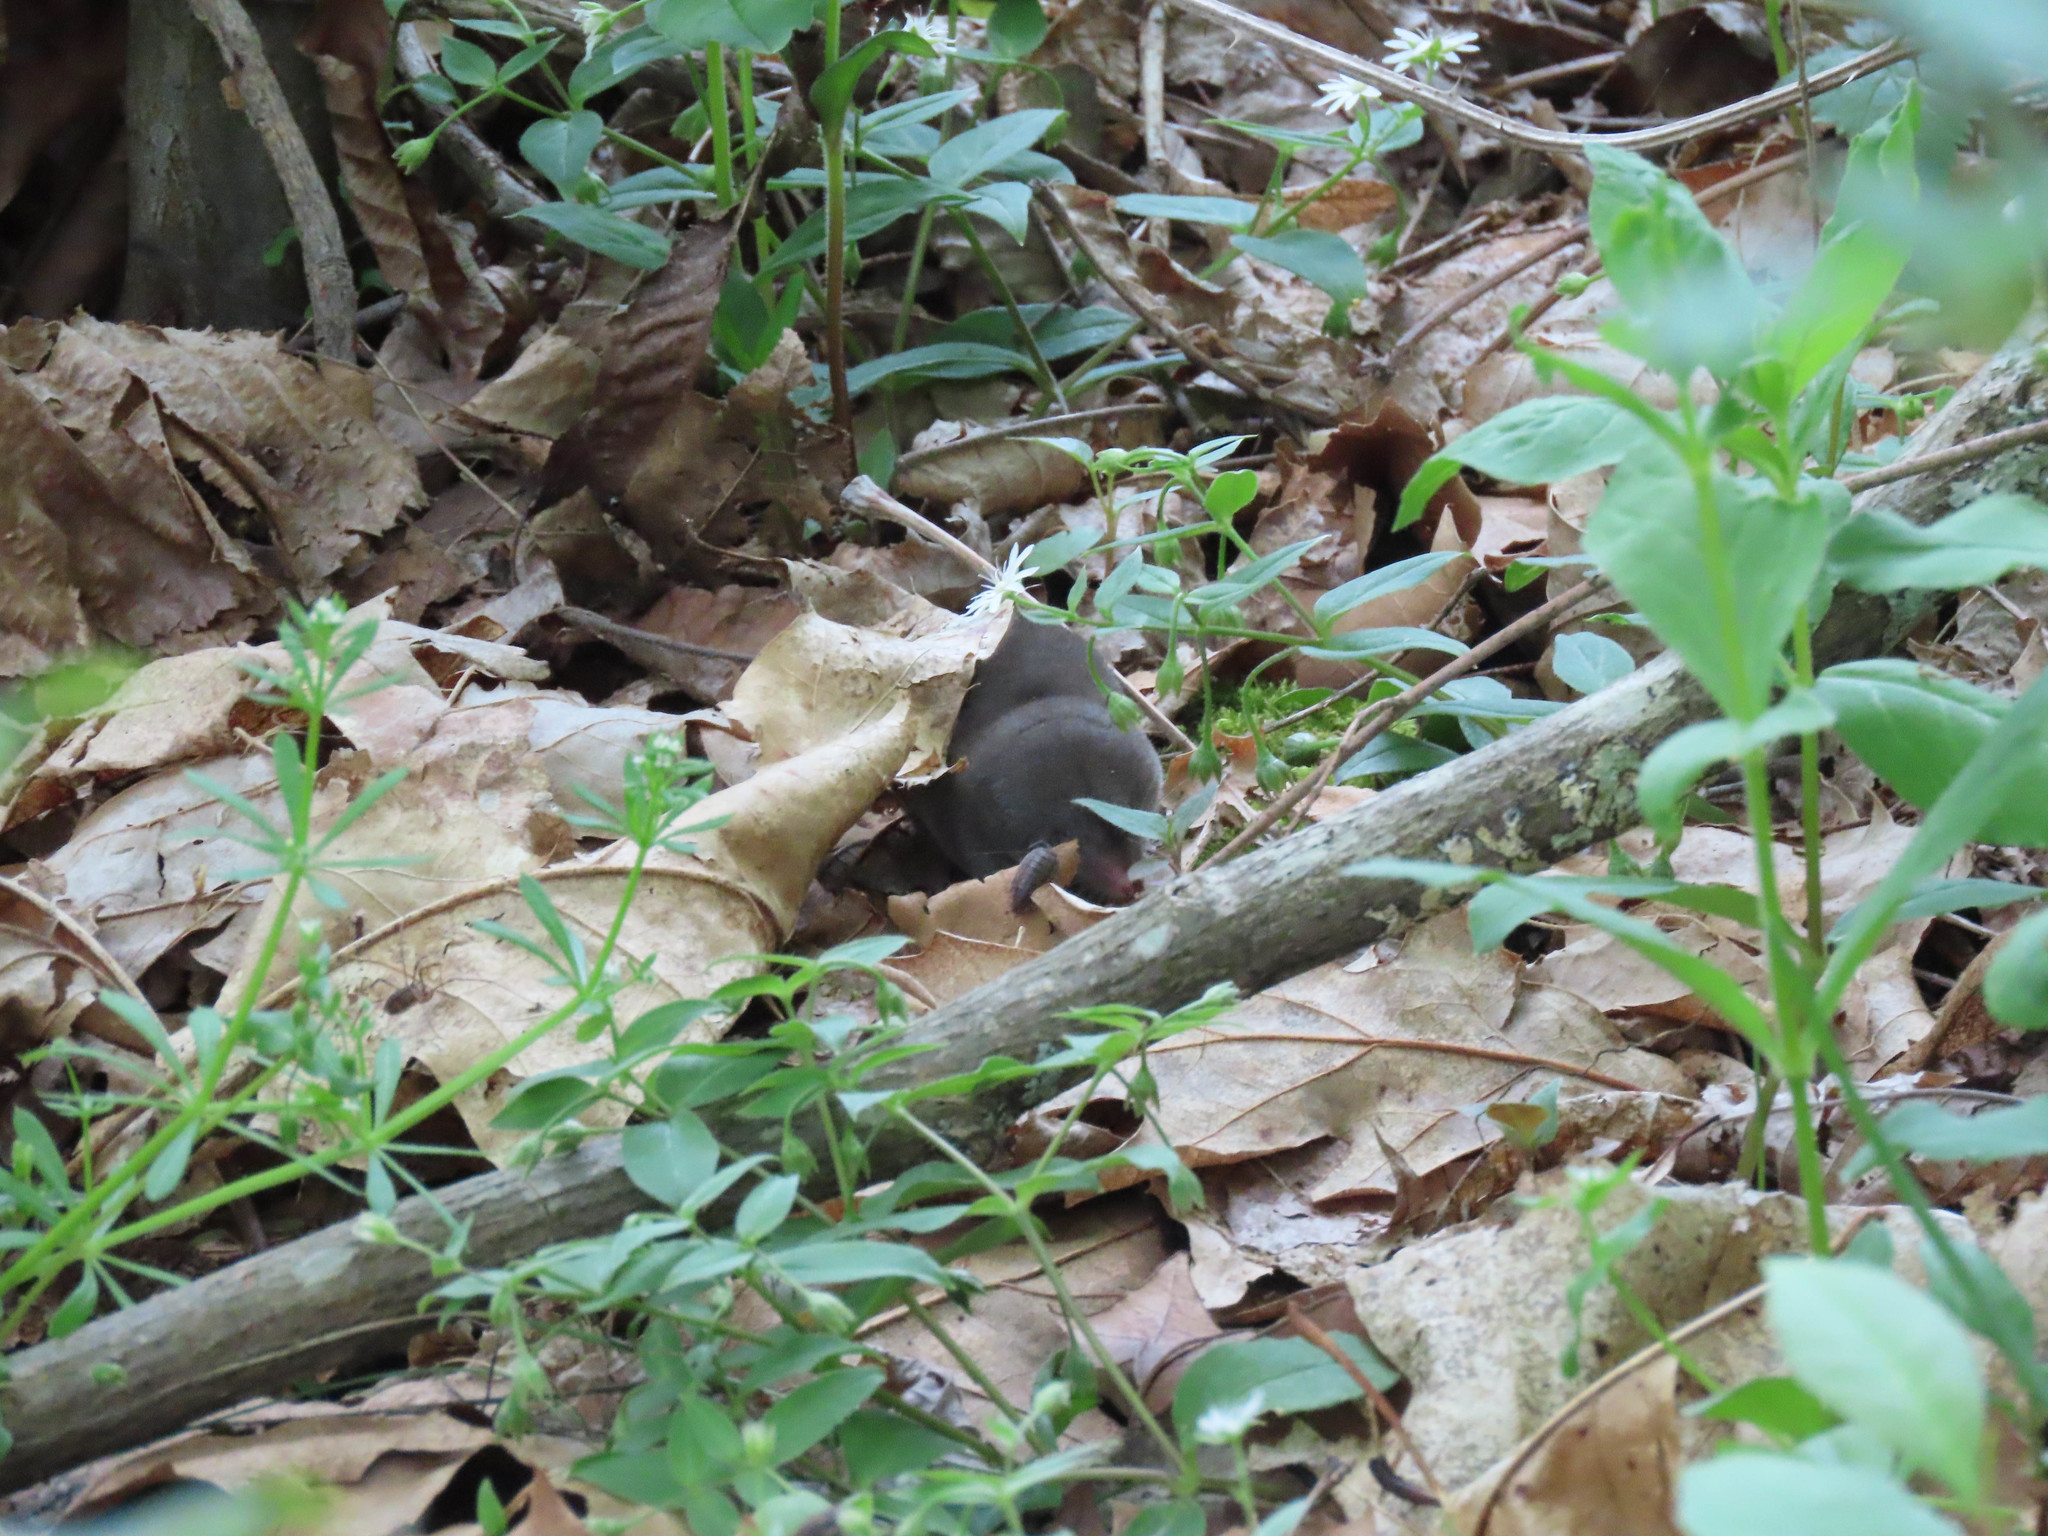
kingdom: Animalia
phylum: Chordata
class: Mammalia
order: Soricomorpha
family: Soricidae
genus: Blarina
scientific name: Blarina brevicauda
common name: Northern short-tailed shrew
